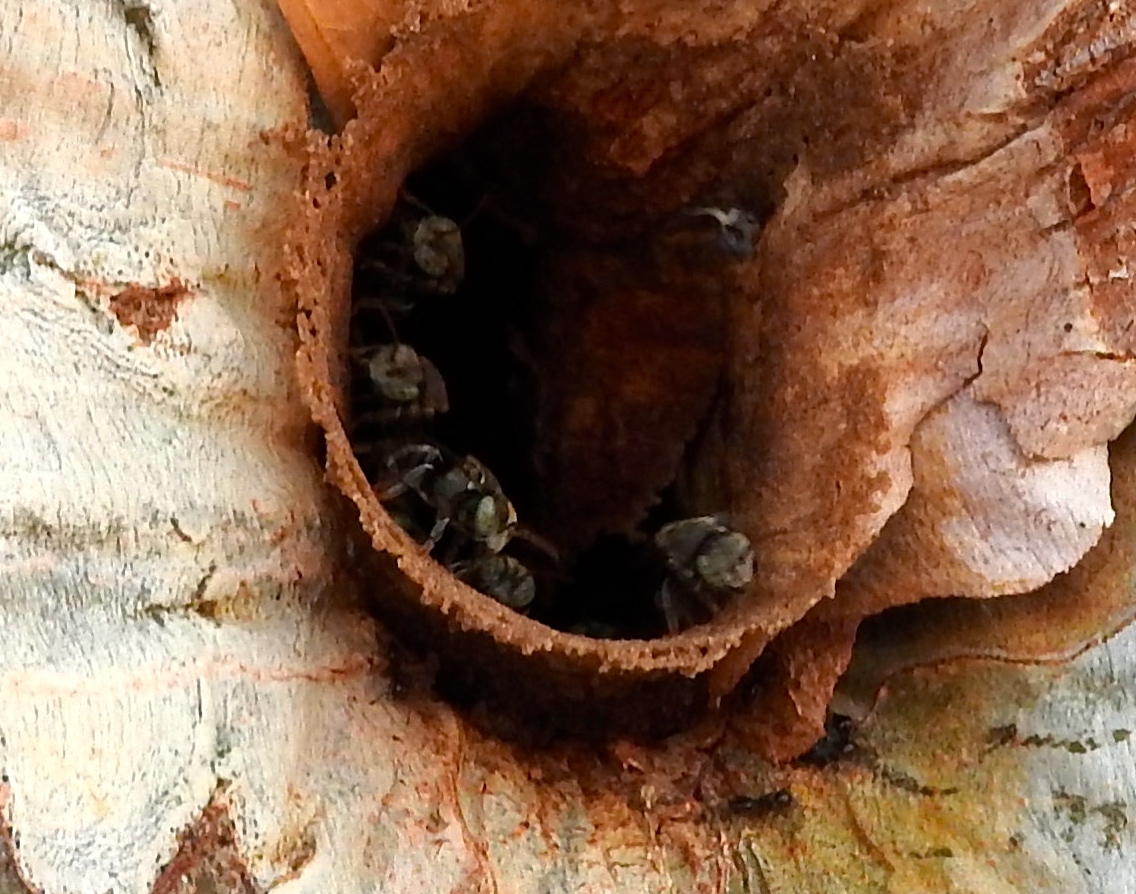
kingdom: Animalia
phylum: Arthropoda
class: Insecta
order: Hymenoptera
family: Apidae
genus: Nannotrigona
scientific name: Nannotrigona perilampoides
